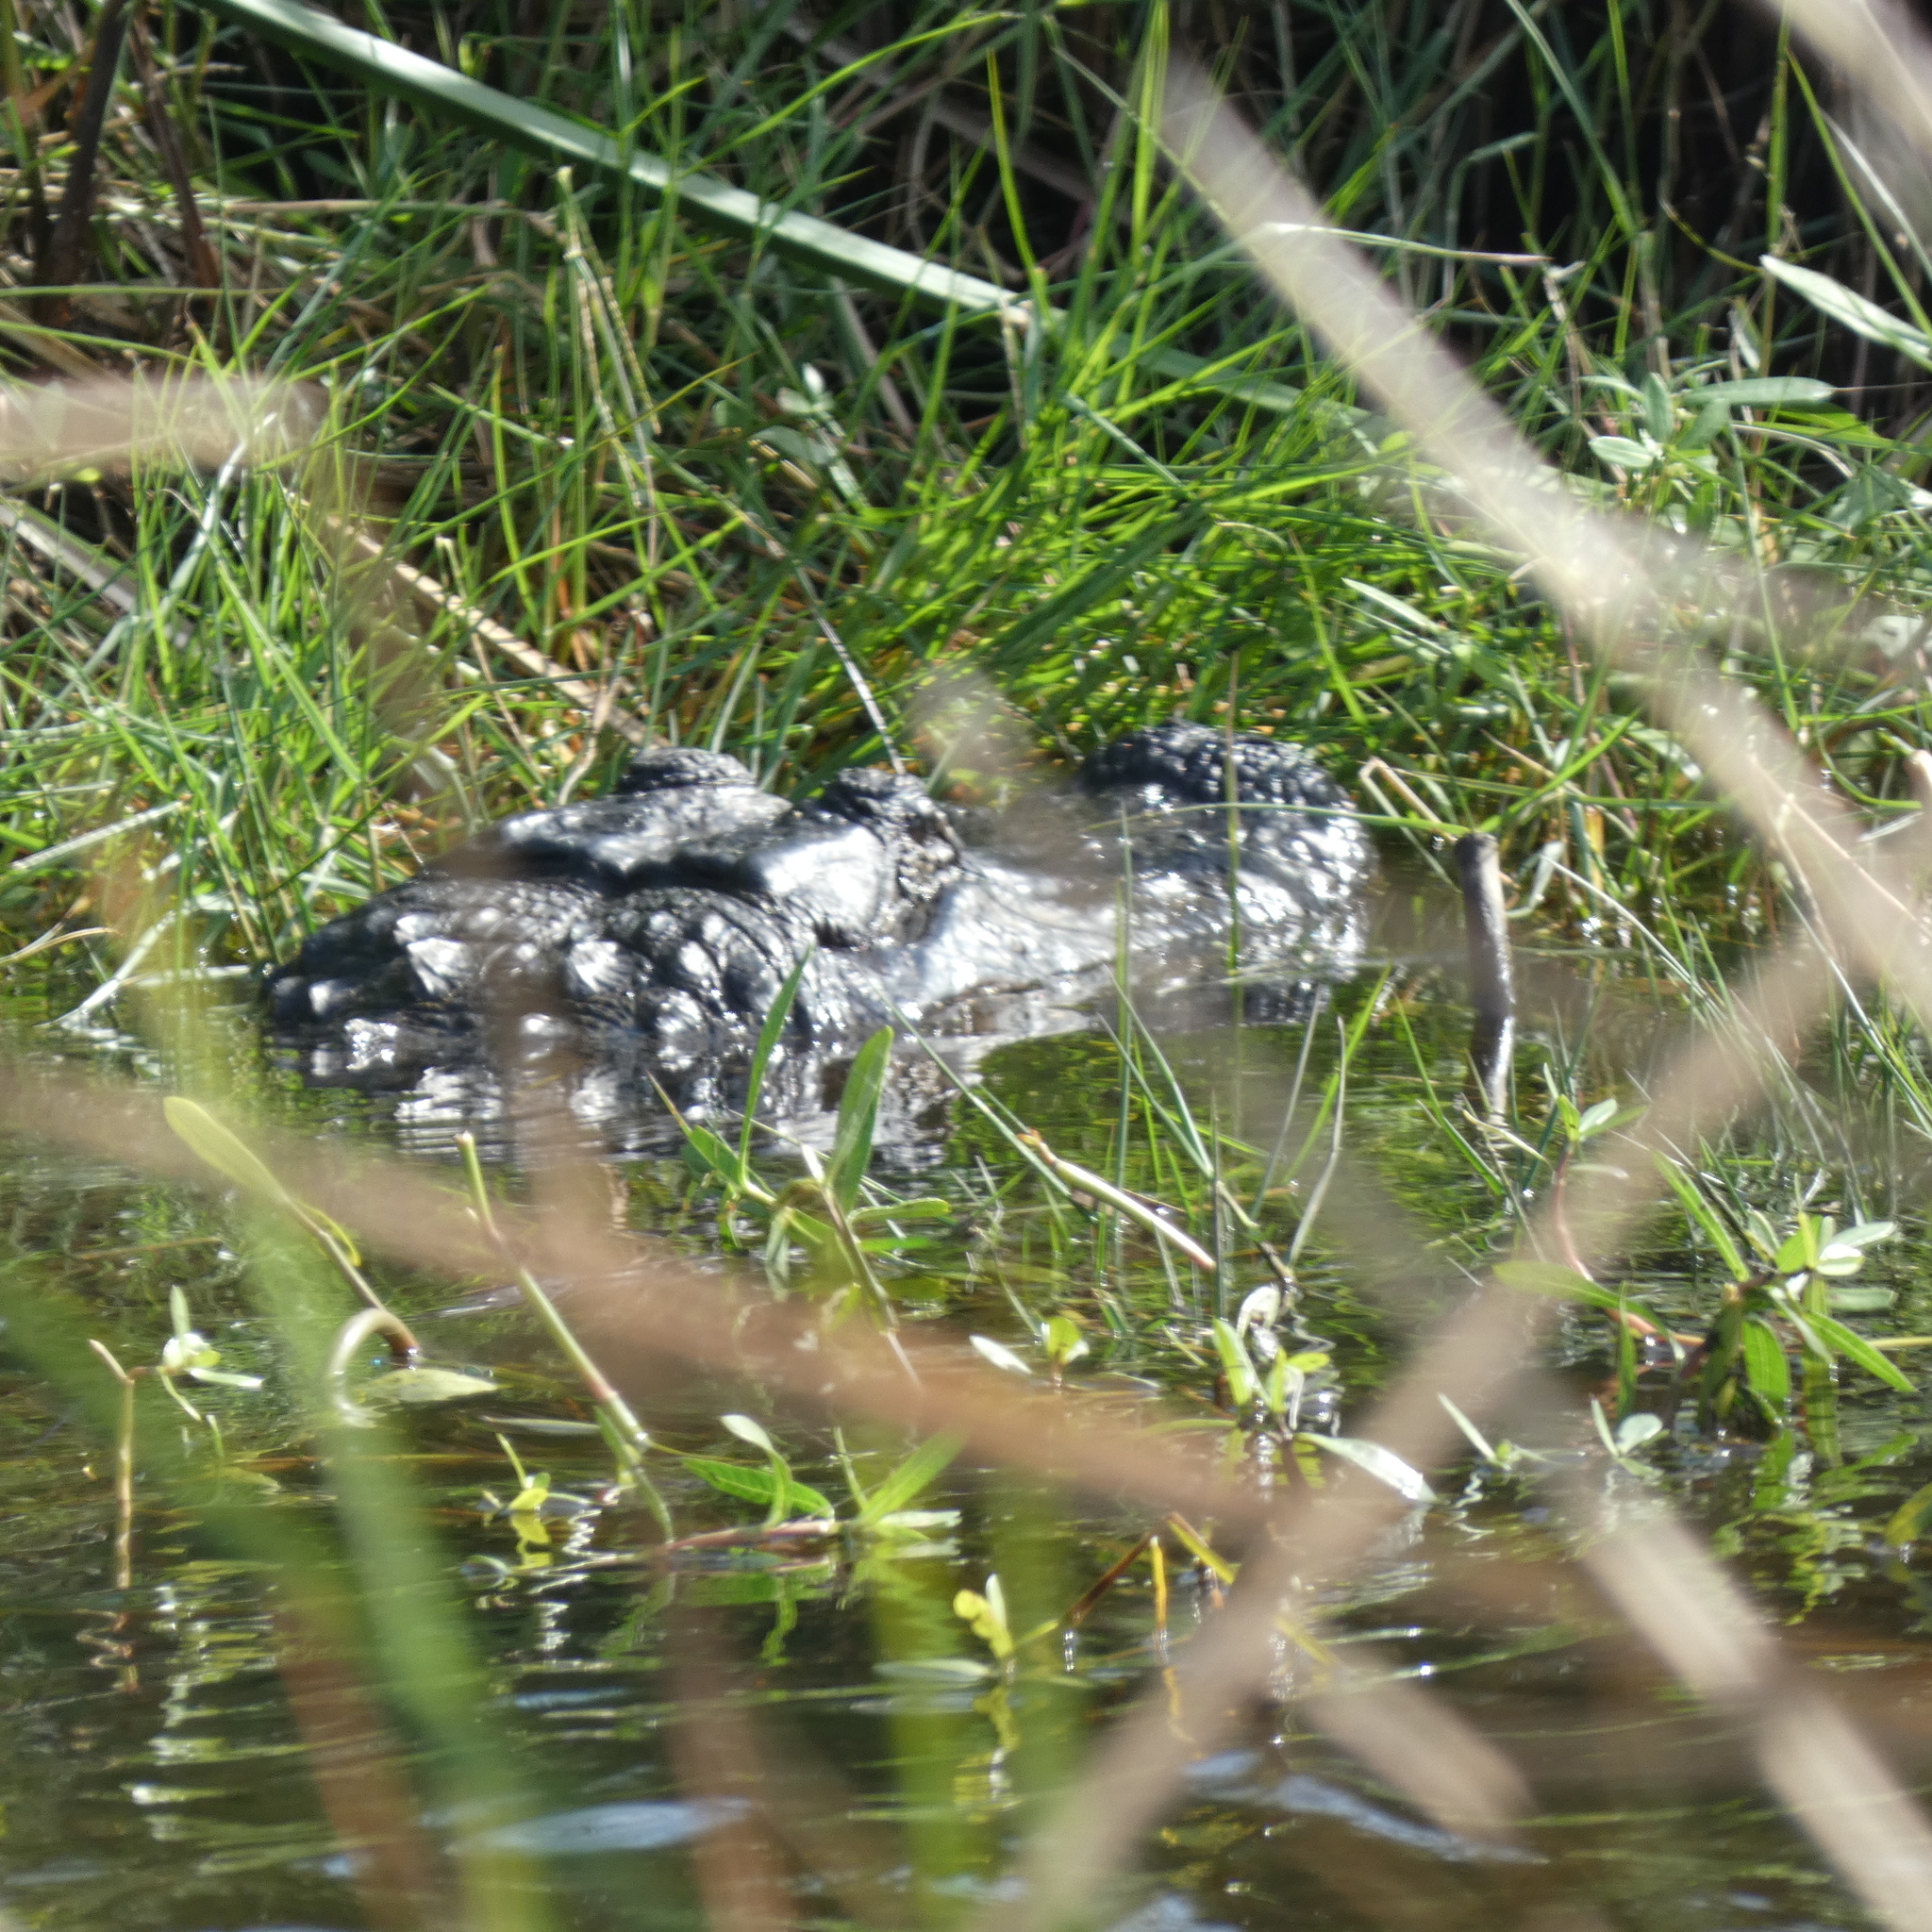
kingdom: Animalia
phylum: Chordata
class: Crocodylia
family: Alligatoridae
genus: Alligator
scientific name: Alligator mississippiensis
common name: American alligator
